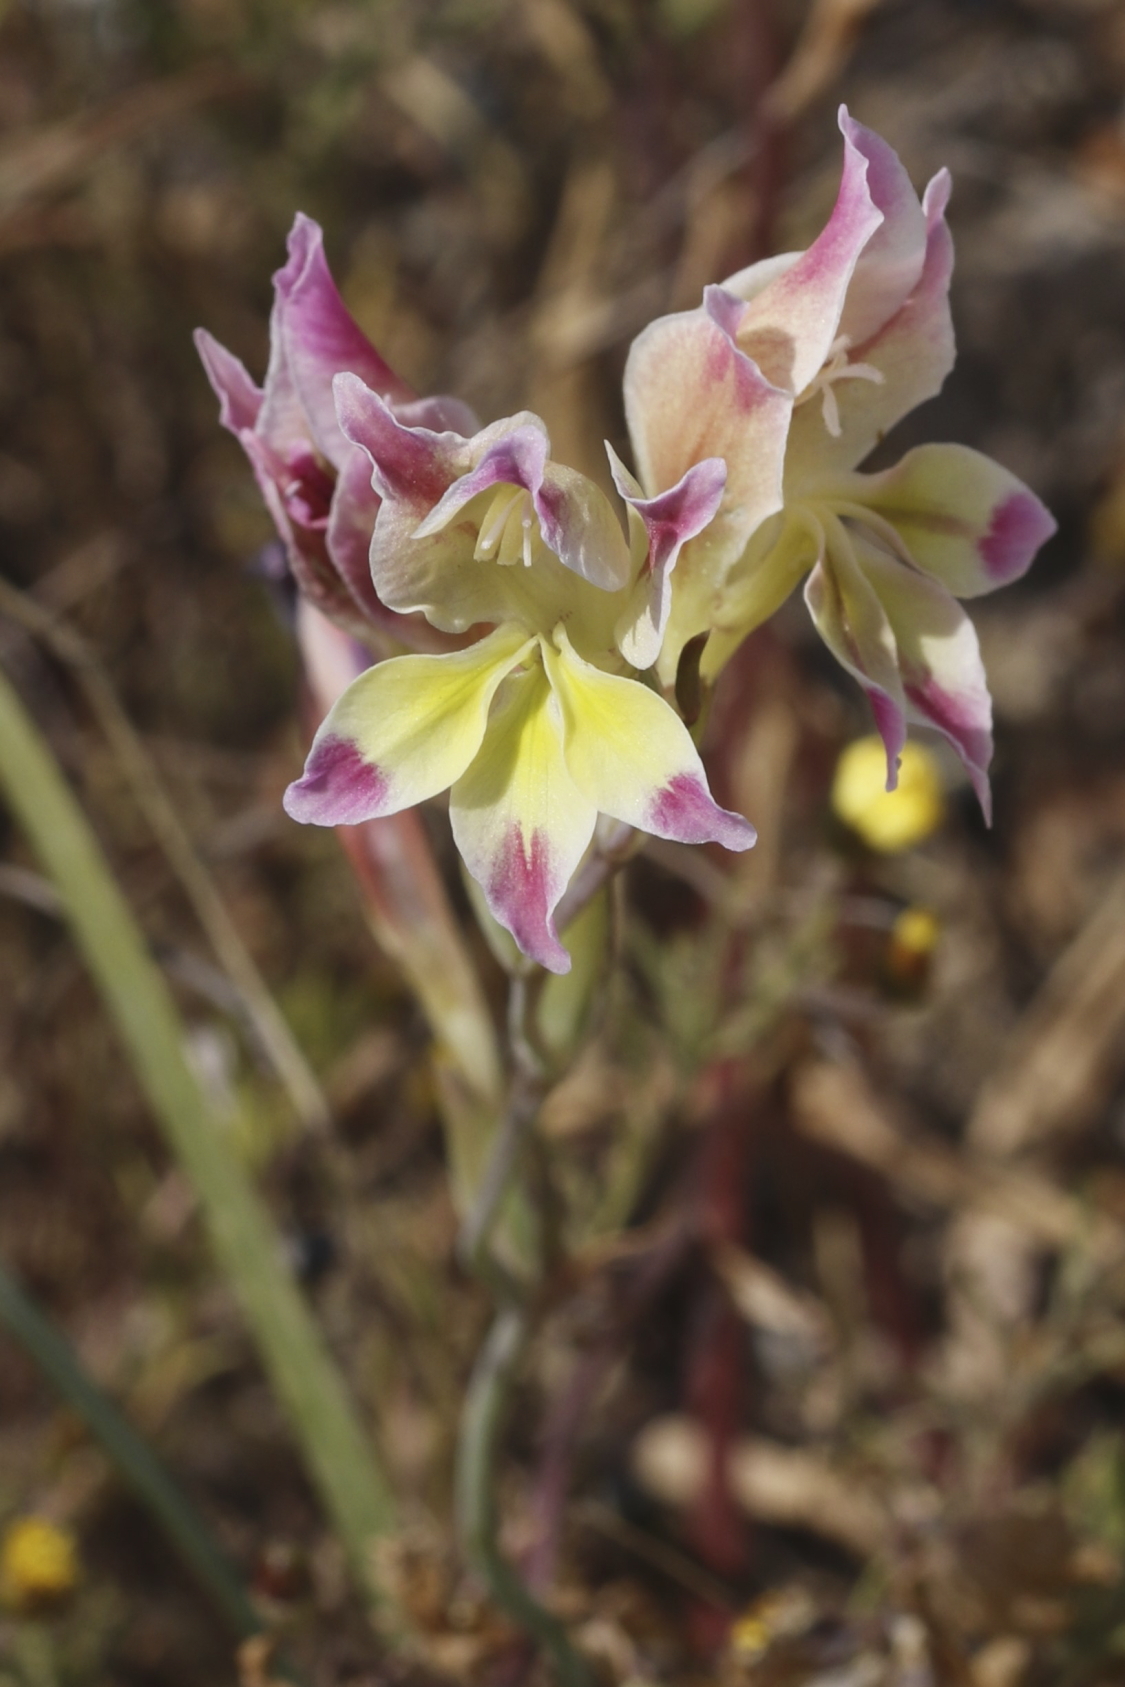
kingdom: Plantae
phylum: Tracheophyta
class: Liliopsida
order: Asparagales
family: Iridaceae
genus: Gladiolus
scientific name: Gladiolus venustus
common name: Purple kalkoentjie
